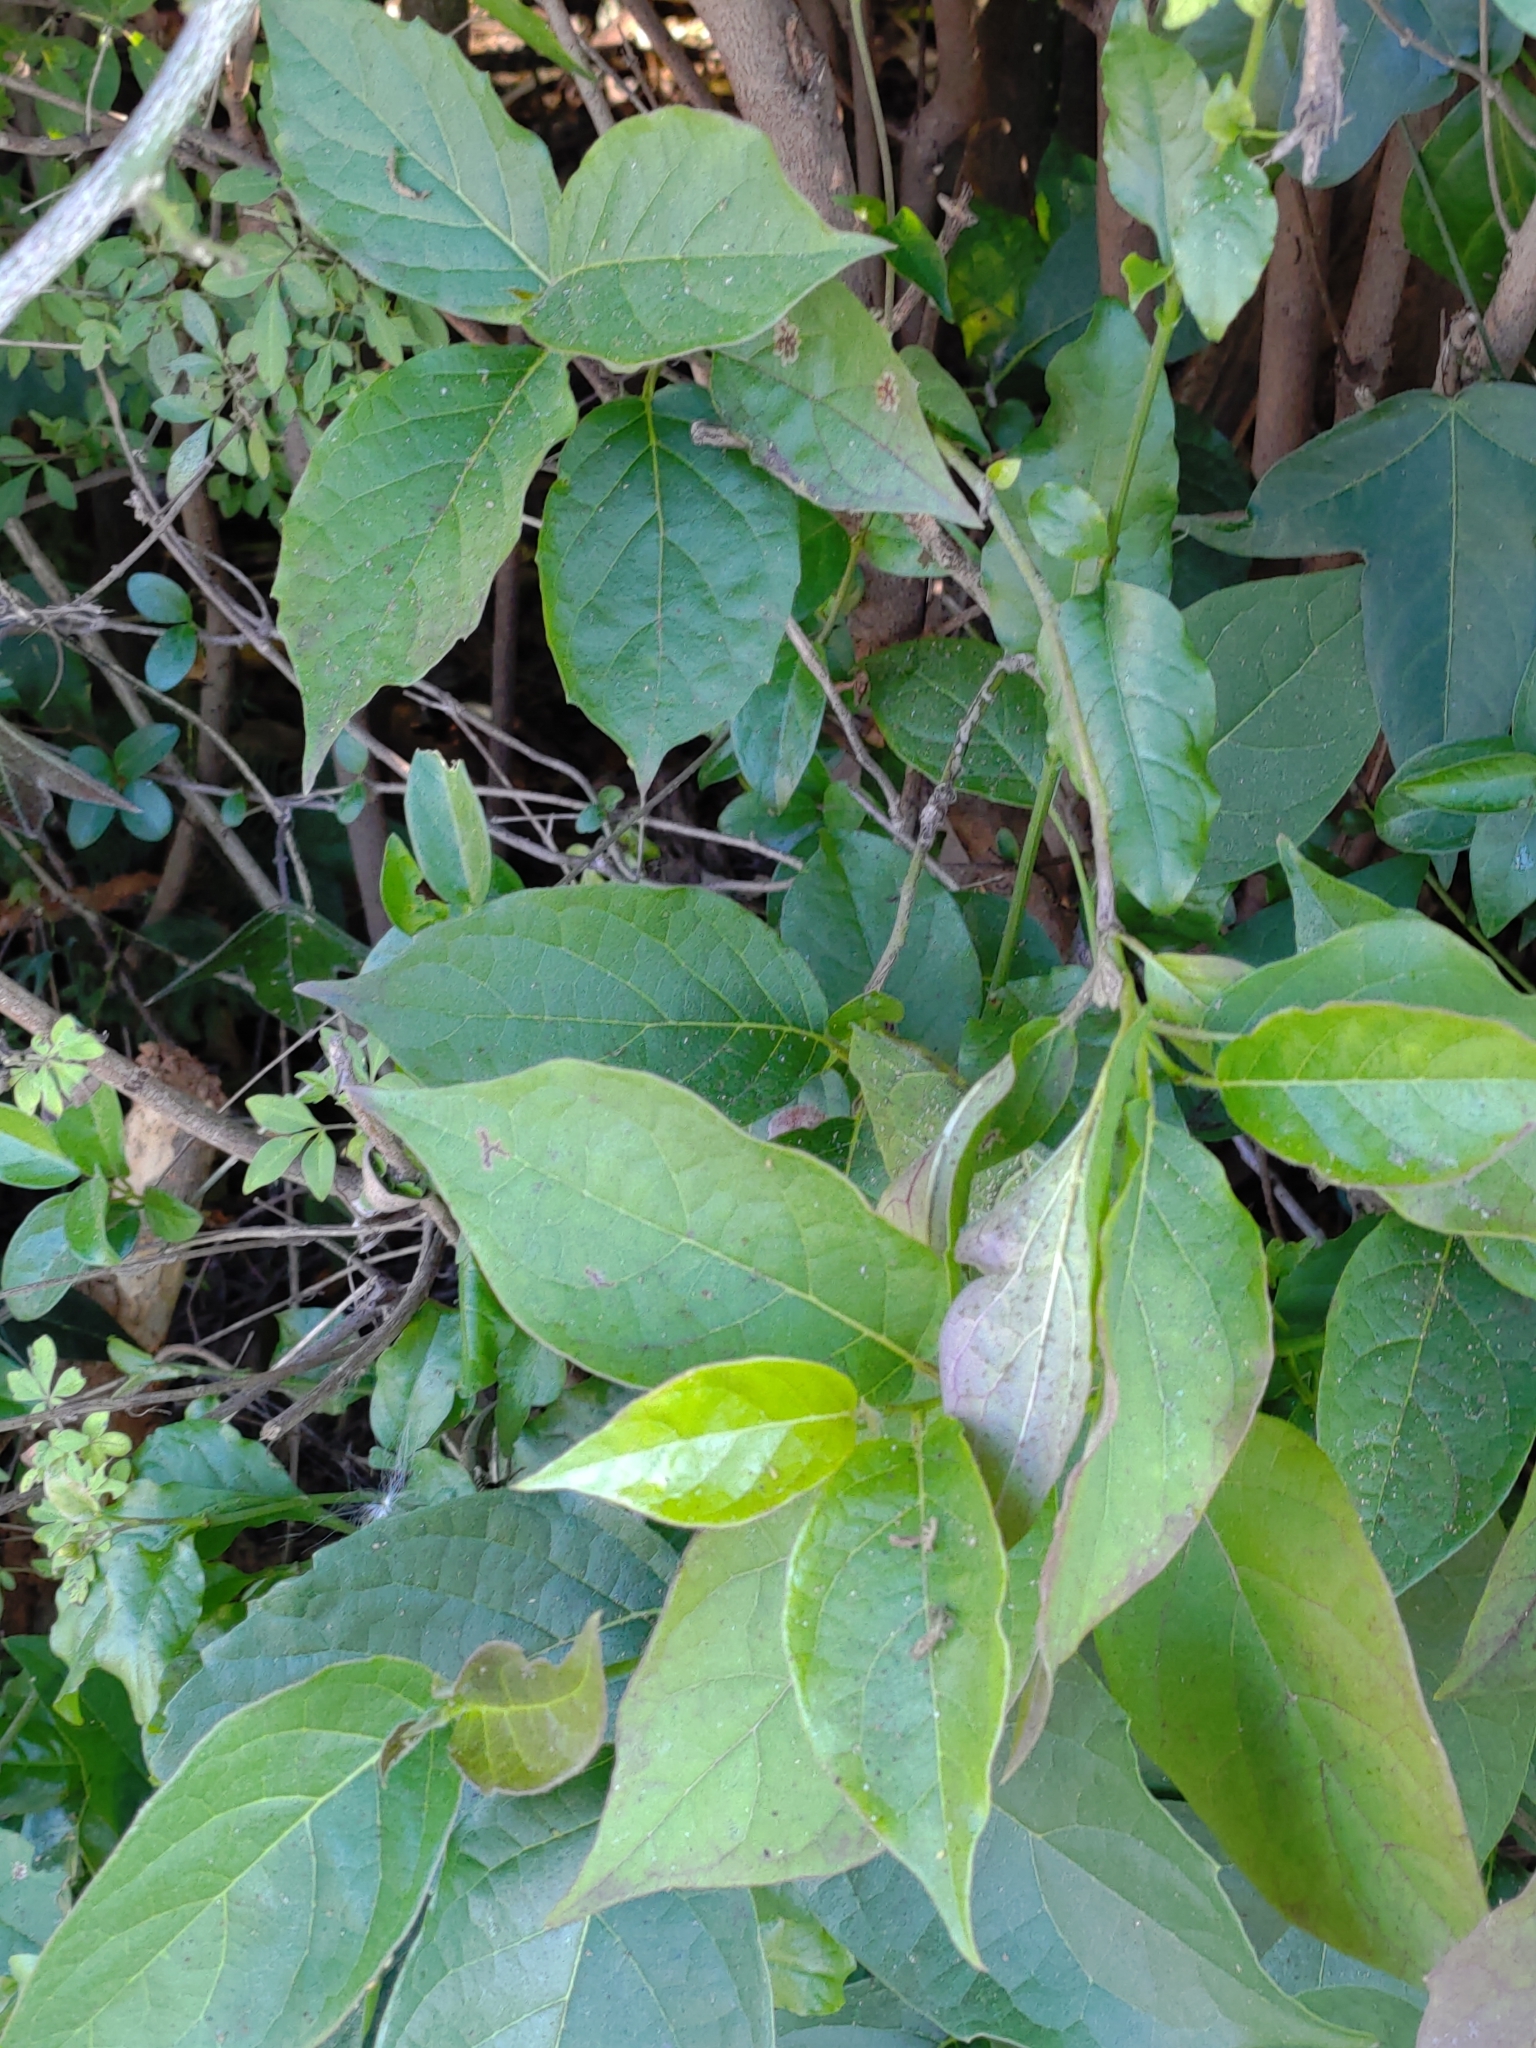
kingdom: Plantae
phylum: Tracheophyta
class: Magnoliopsida
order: Boraginales
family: Ehretiaceae
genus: Ehretia
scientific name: Ehretia resinosa
